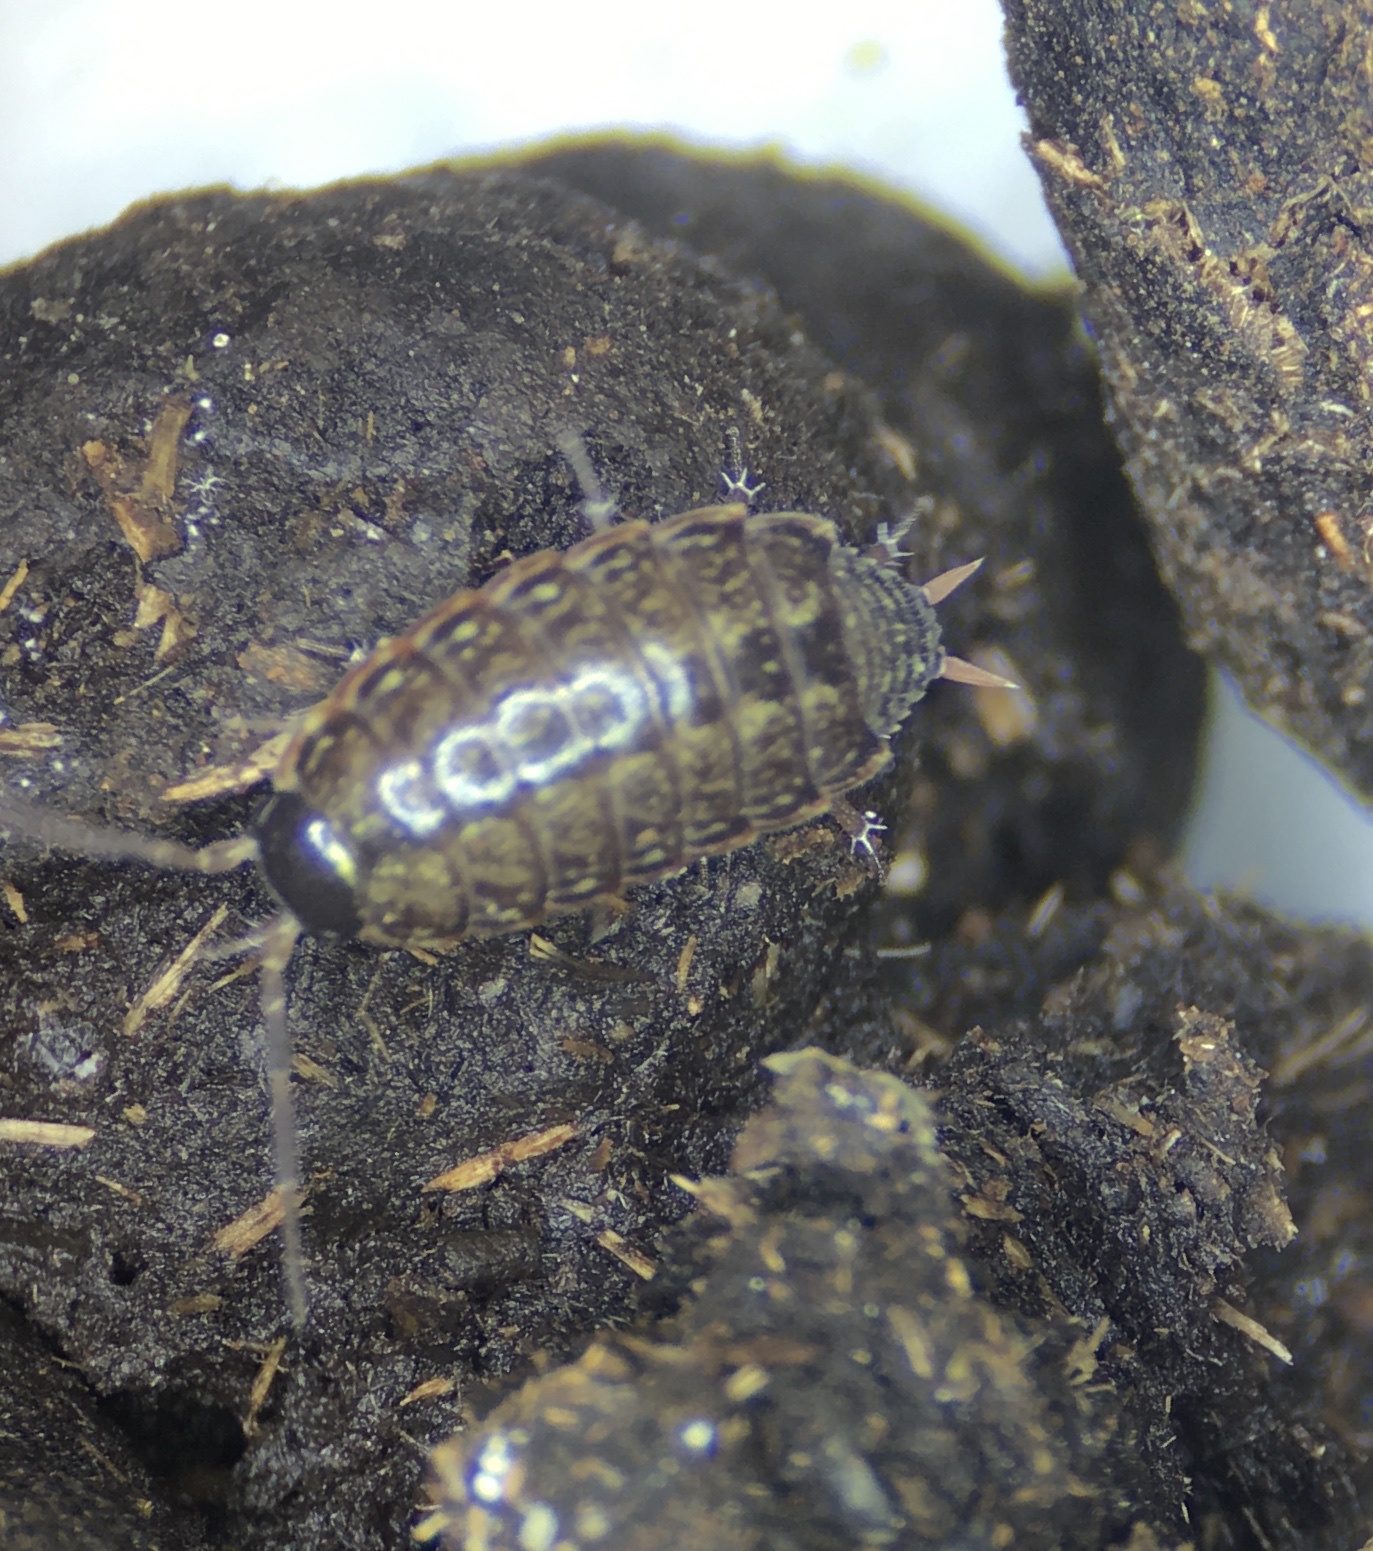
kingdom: Animalia
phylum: Arthropoda
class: Malacostraca
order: Isopoda
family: Philosciidae
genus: Philoscia
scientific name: Philoscia muscorum
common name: Common striped woodlouse
